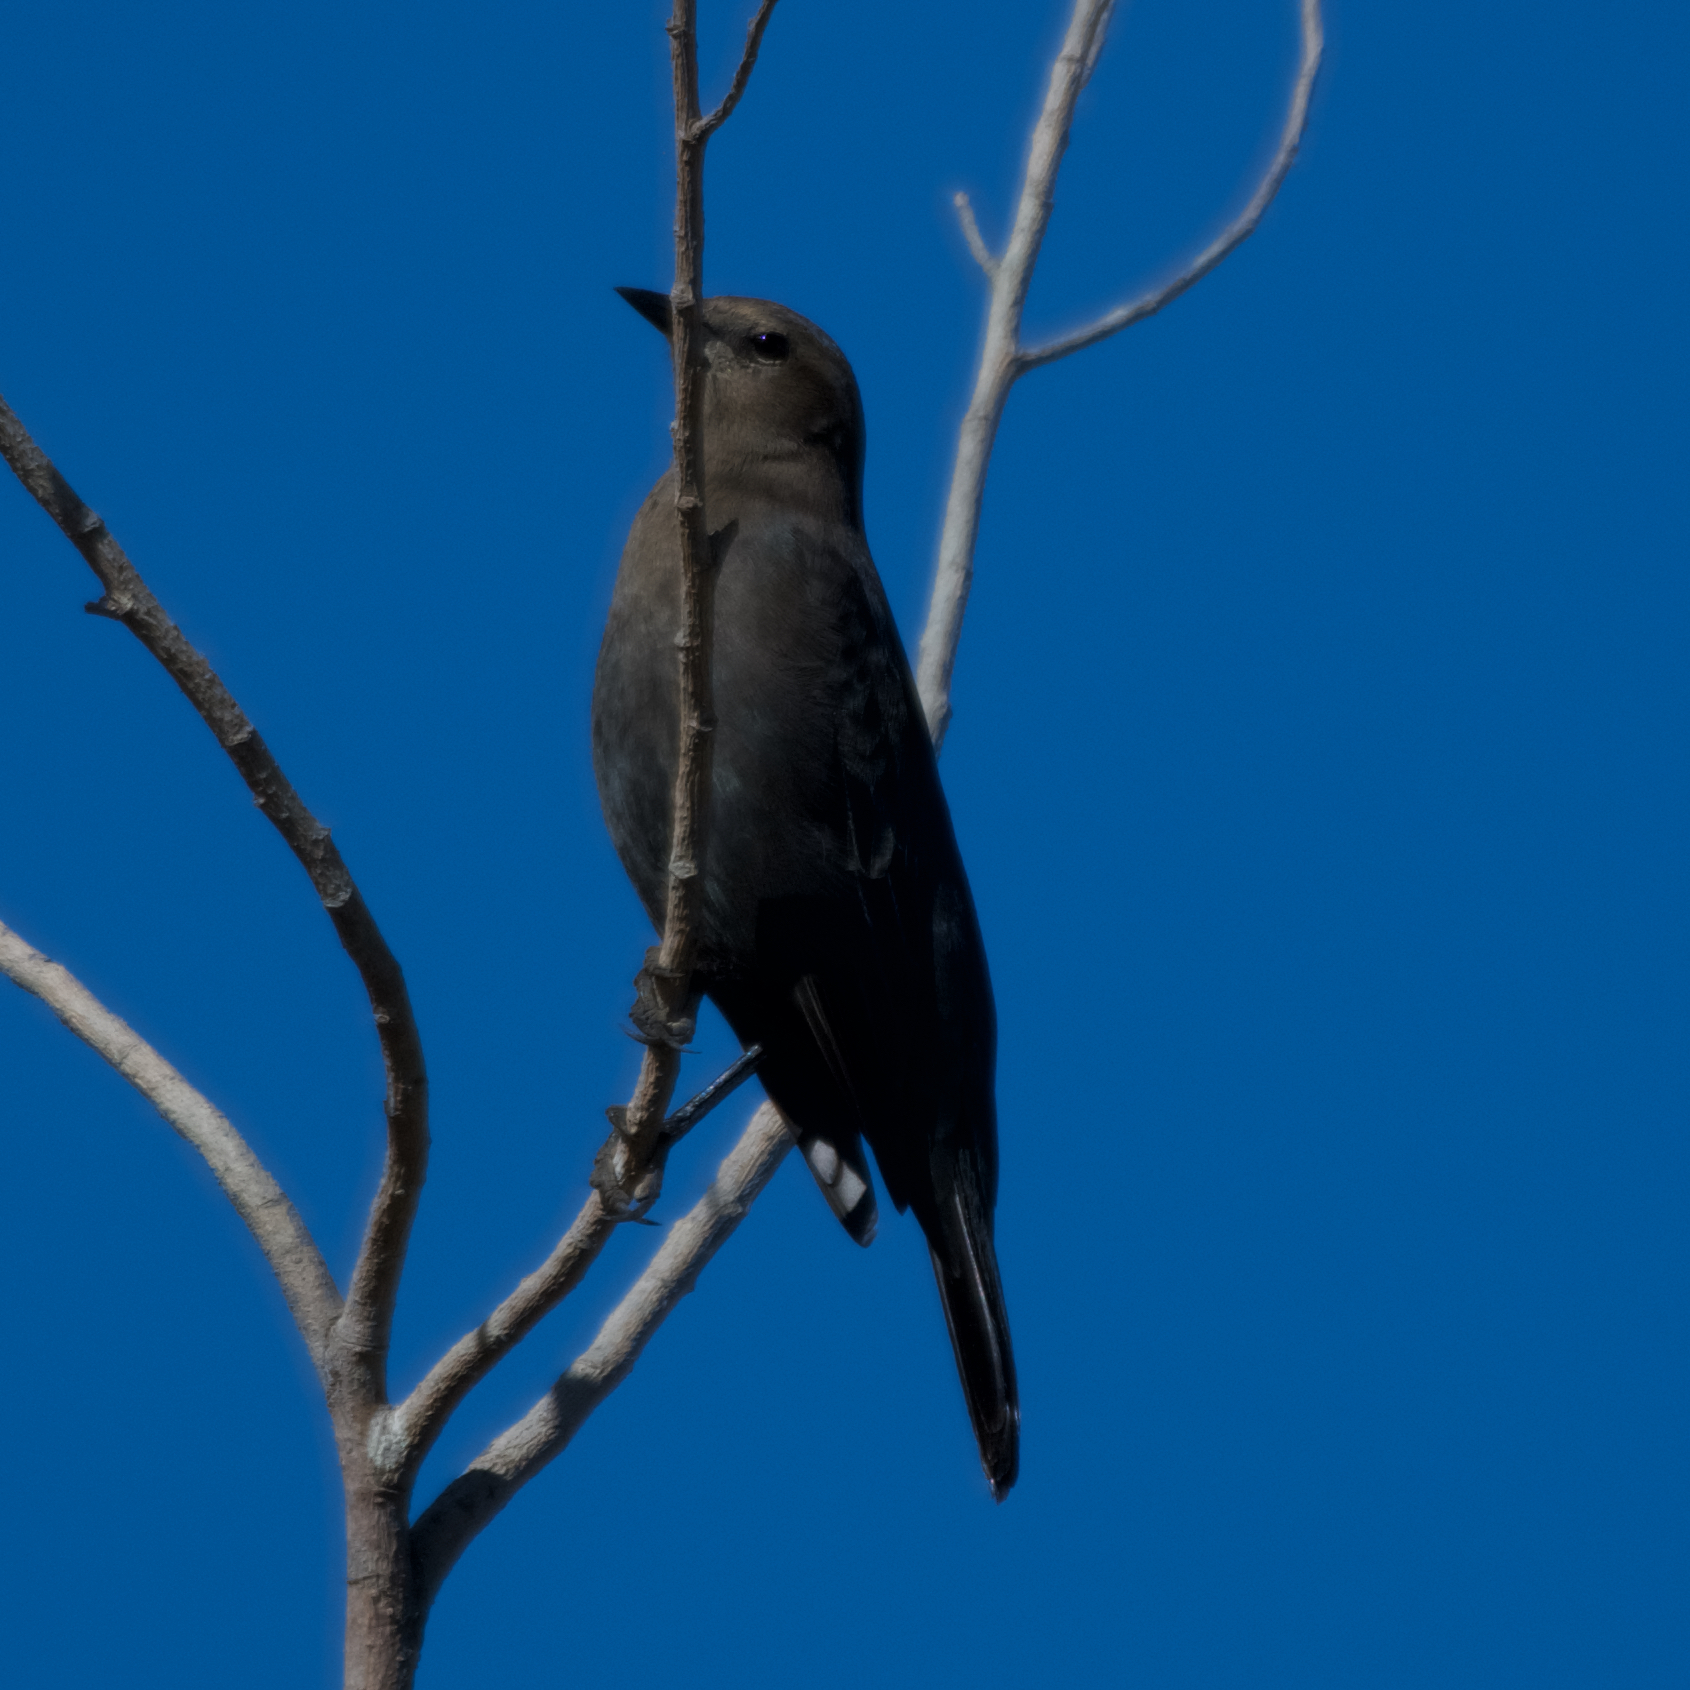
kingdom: Animalia
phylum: Chordata
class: Aves
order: Passeriformes
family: Icteridae
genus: Euphagus
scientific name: Euphagus cyanocephalus
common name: Brewer's blackbird
